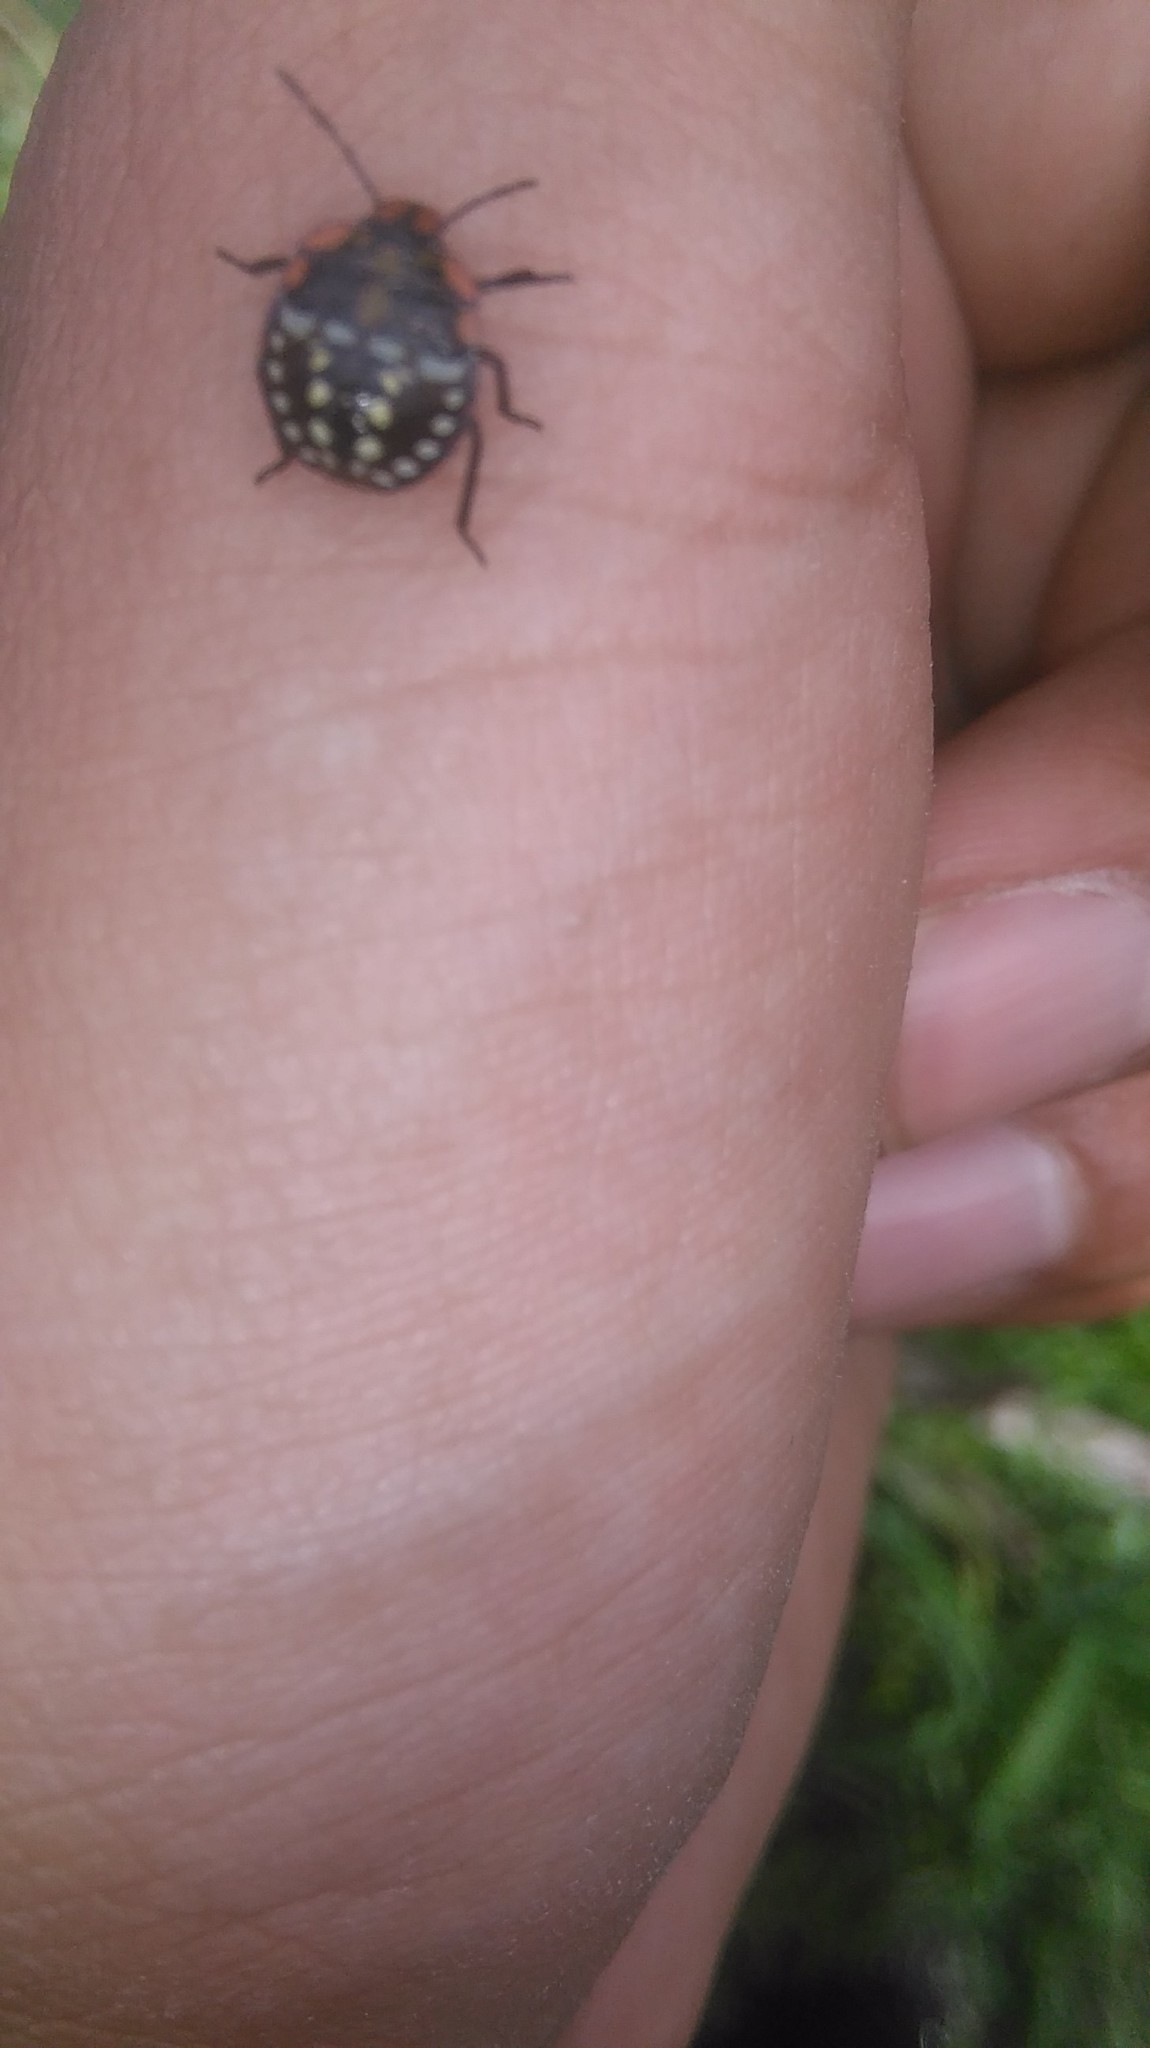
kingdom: Animalia
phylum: Arthropoda
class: Insecta
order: Hemiptera
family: Pentatomidae
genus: Nezara
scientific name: Nezara viridula
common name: Southern green stink bug
